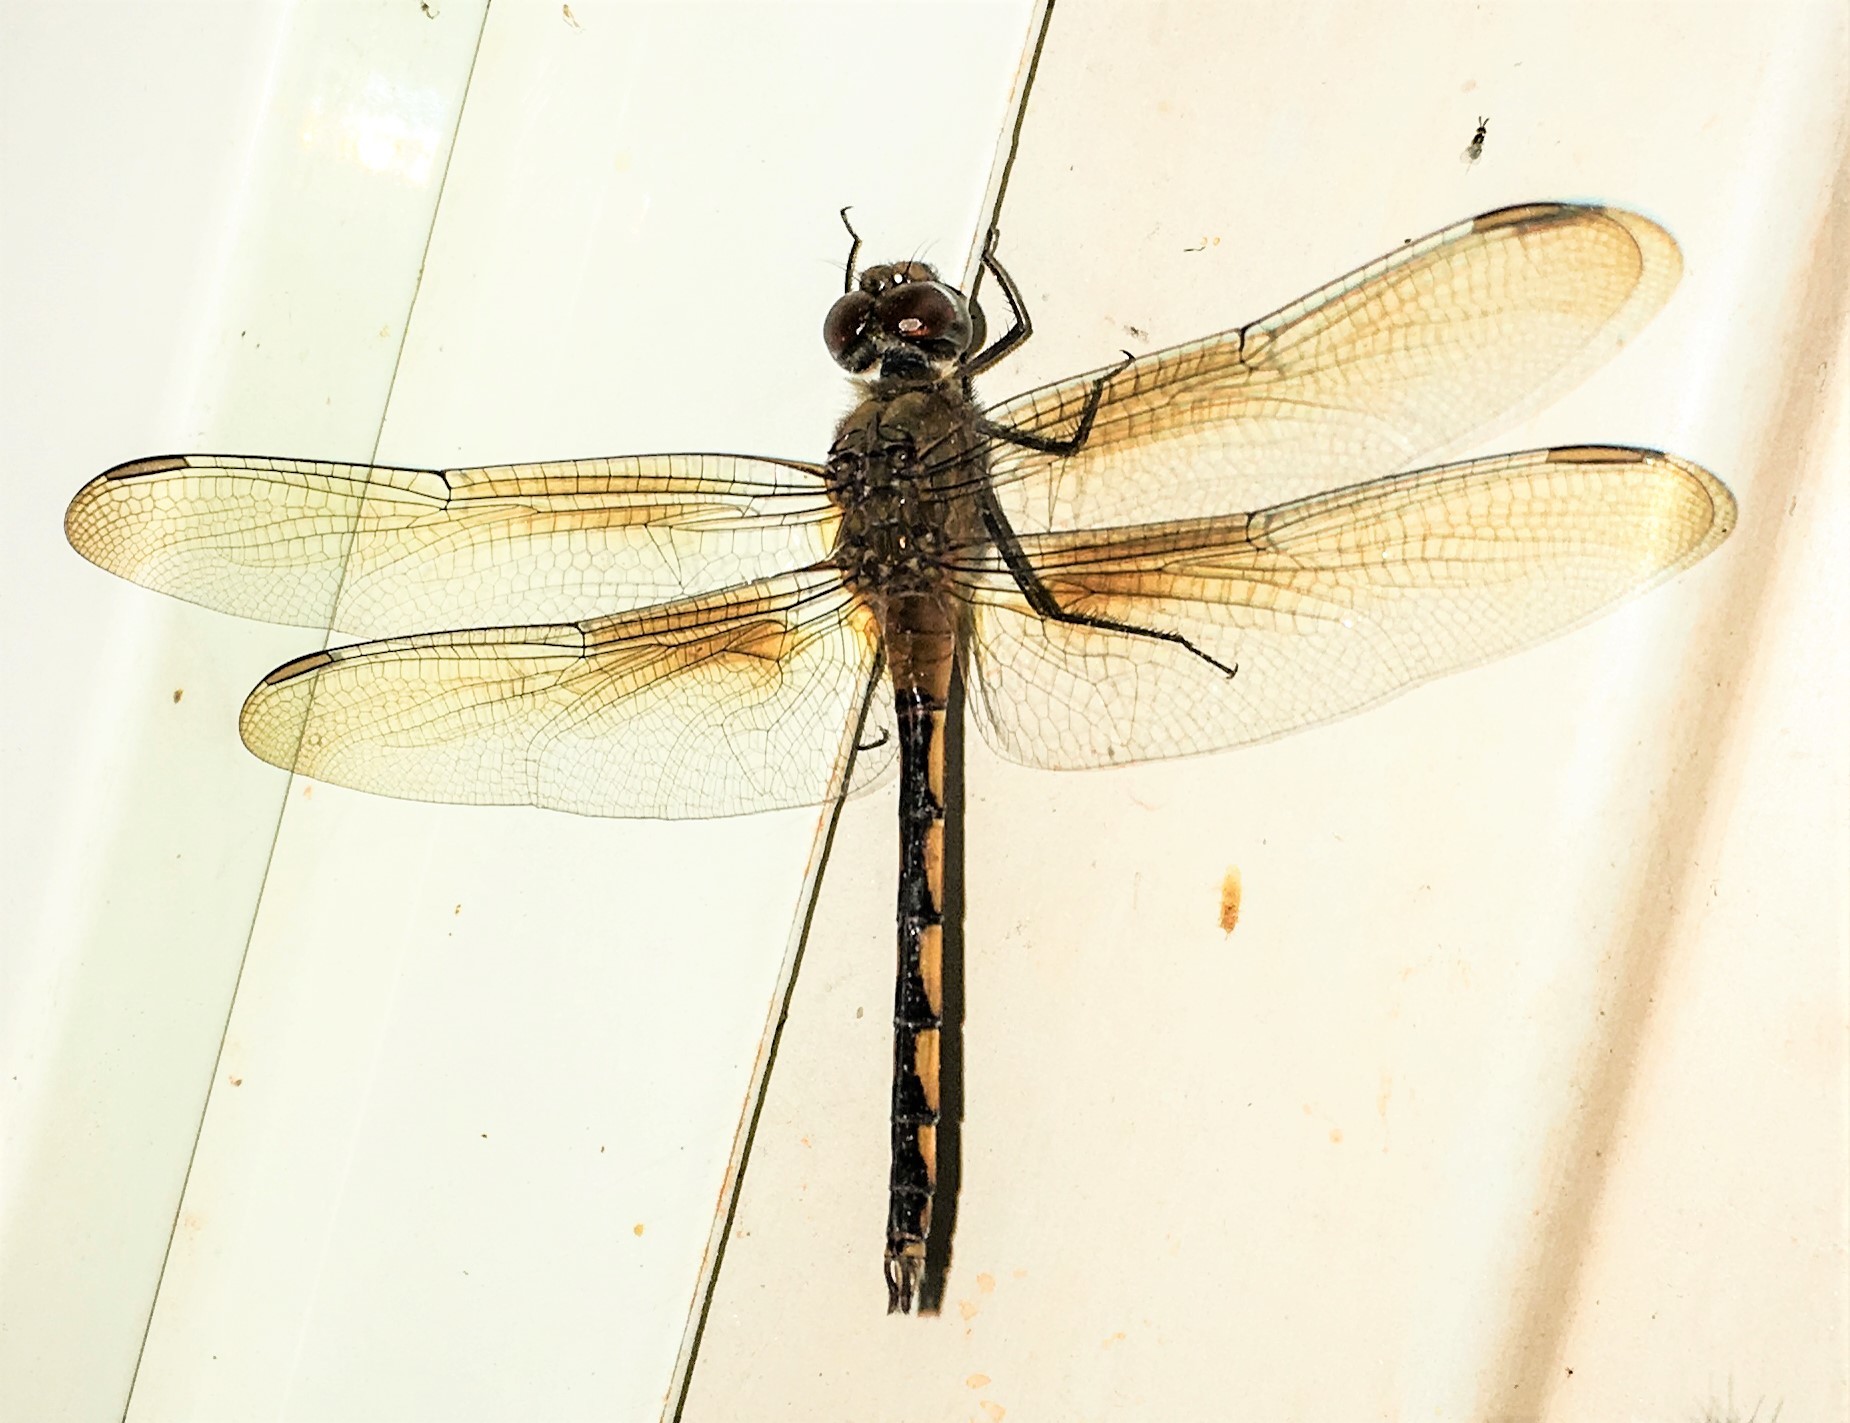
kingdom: Animalia
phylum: Arthropoda
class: Insecta
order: Odonata
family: Libellulidae
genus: Brachymesia
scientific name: Brachymesia herbida
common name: Tawny pennant
